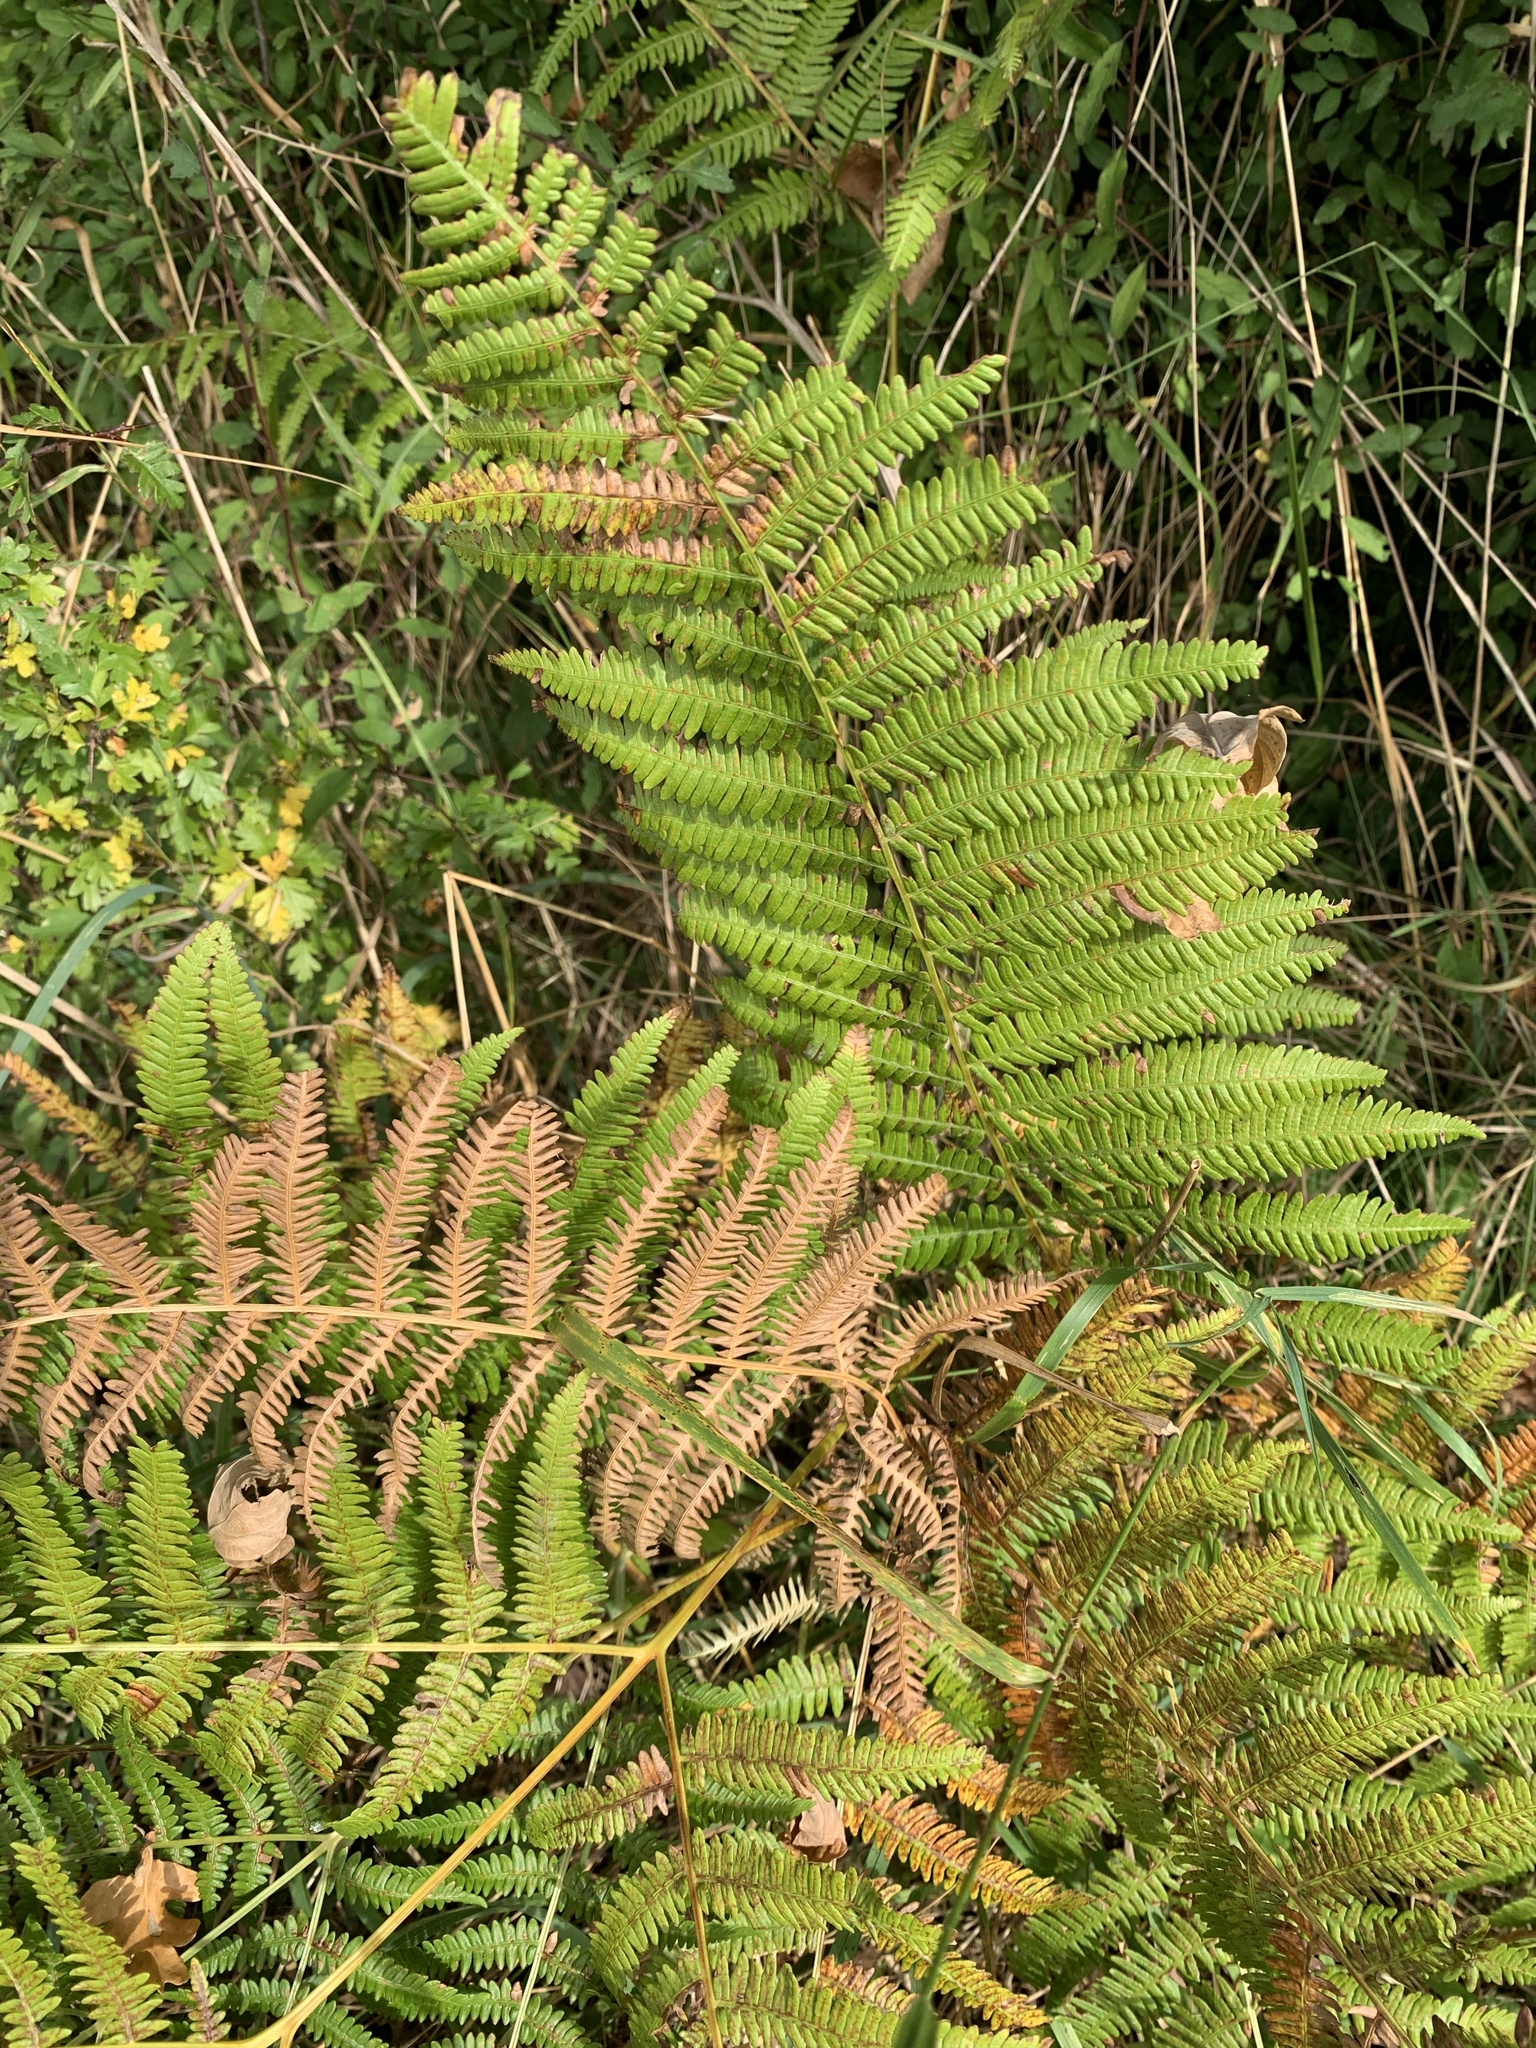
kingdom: Plantae
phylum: Tracheophyta
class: Polypodiopsida
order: Polypodiales
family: Dennstaedtiaceae
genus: Pteridium
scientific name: Pteridium aquilinum
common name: Bracken
